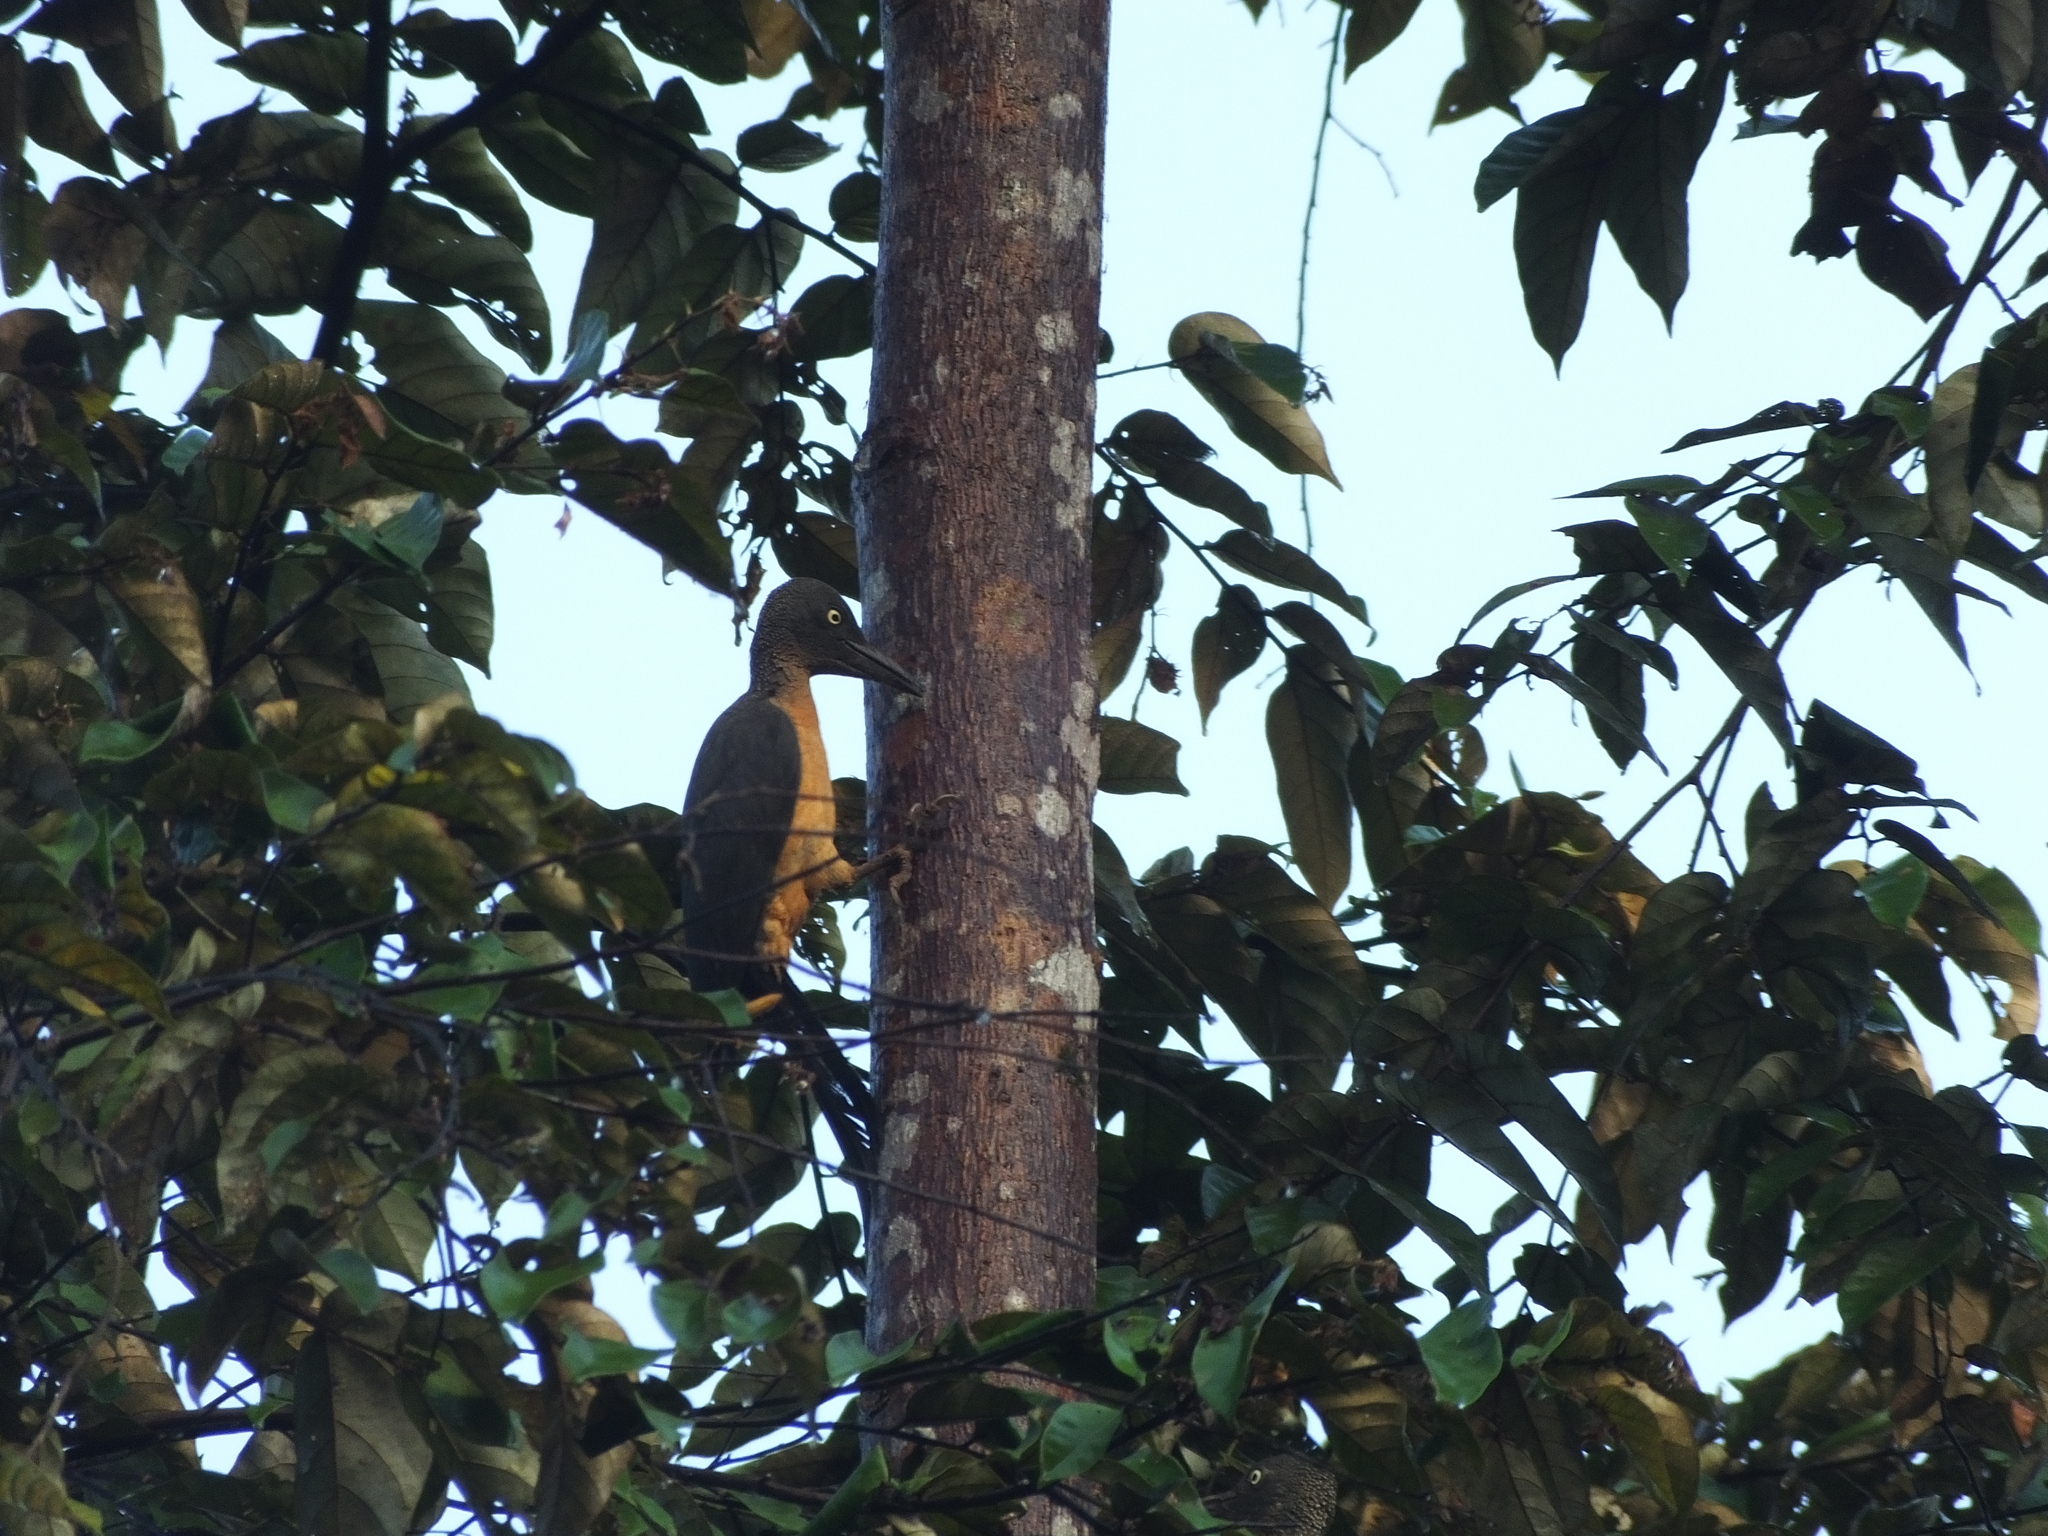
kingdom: Animalia
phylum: Chordata
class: Aves
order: Piciformes
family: Picidae
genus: Mulleripicus
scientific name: Mulleripicus fulvus
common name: Ashy woodpecker
